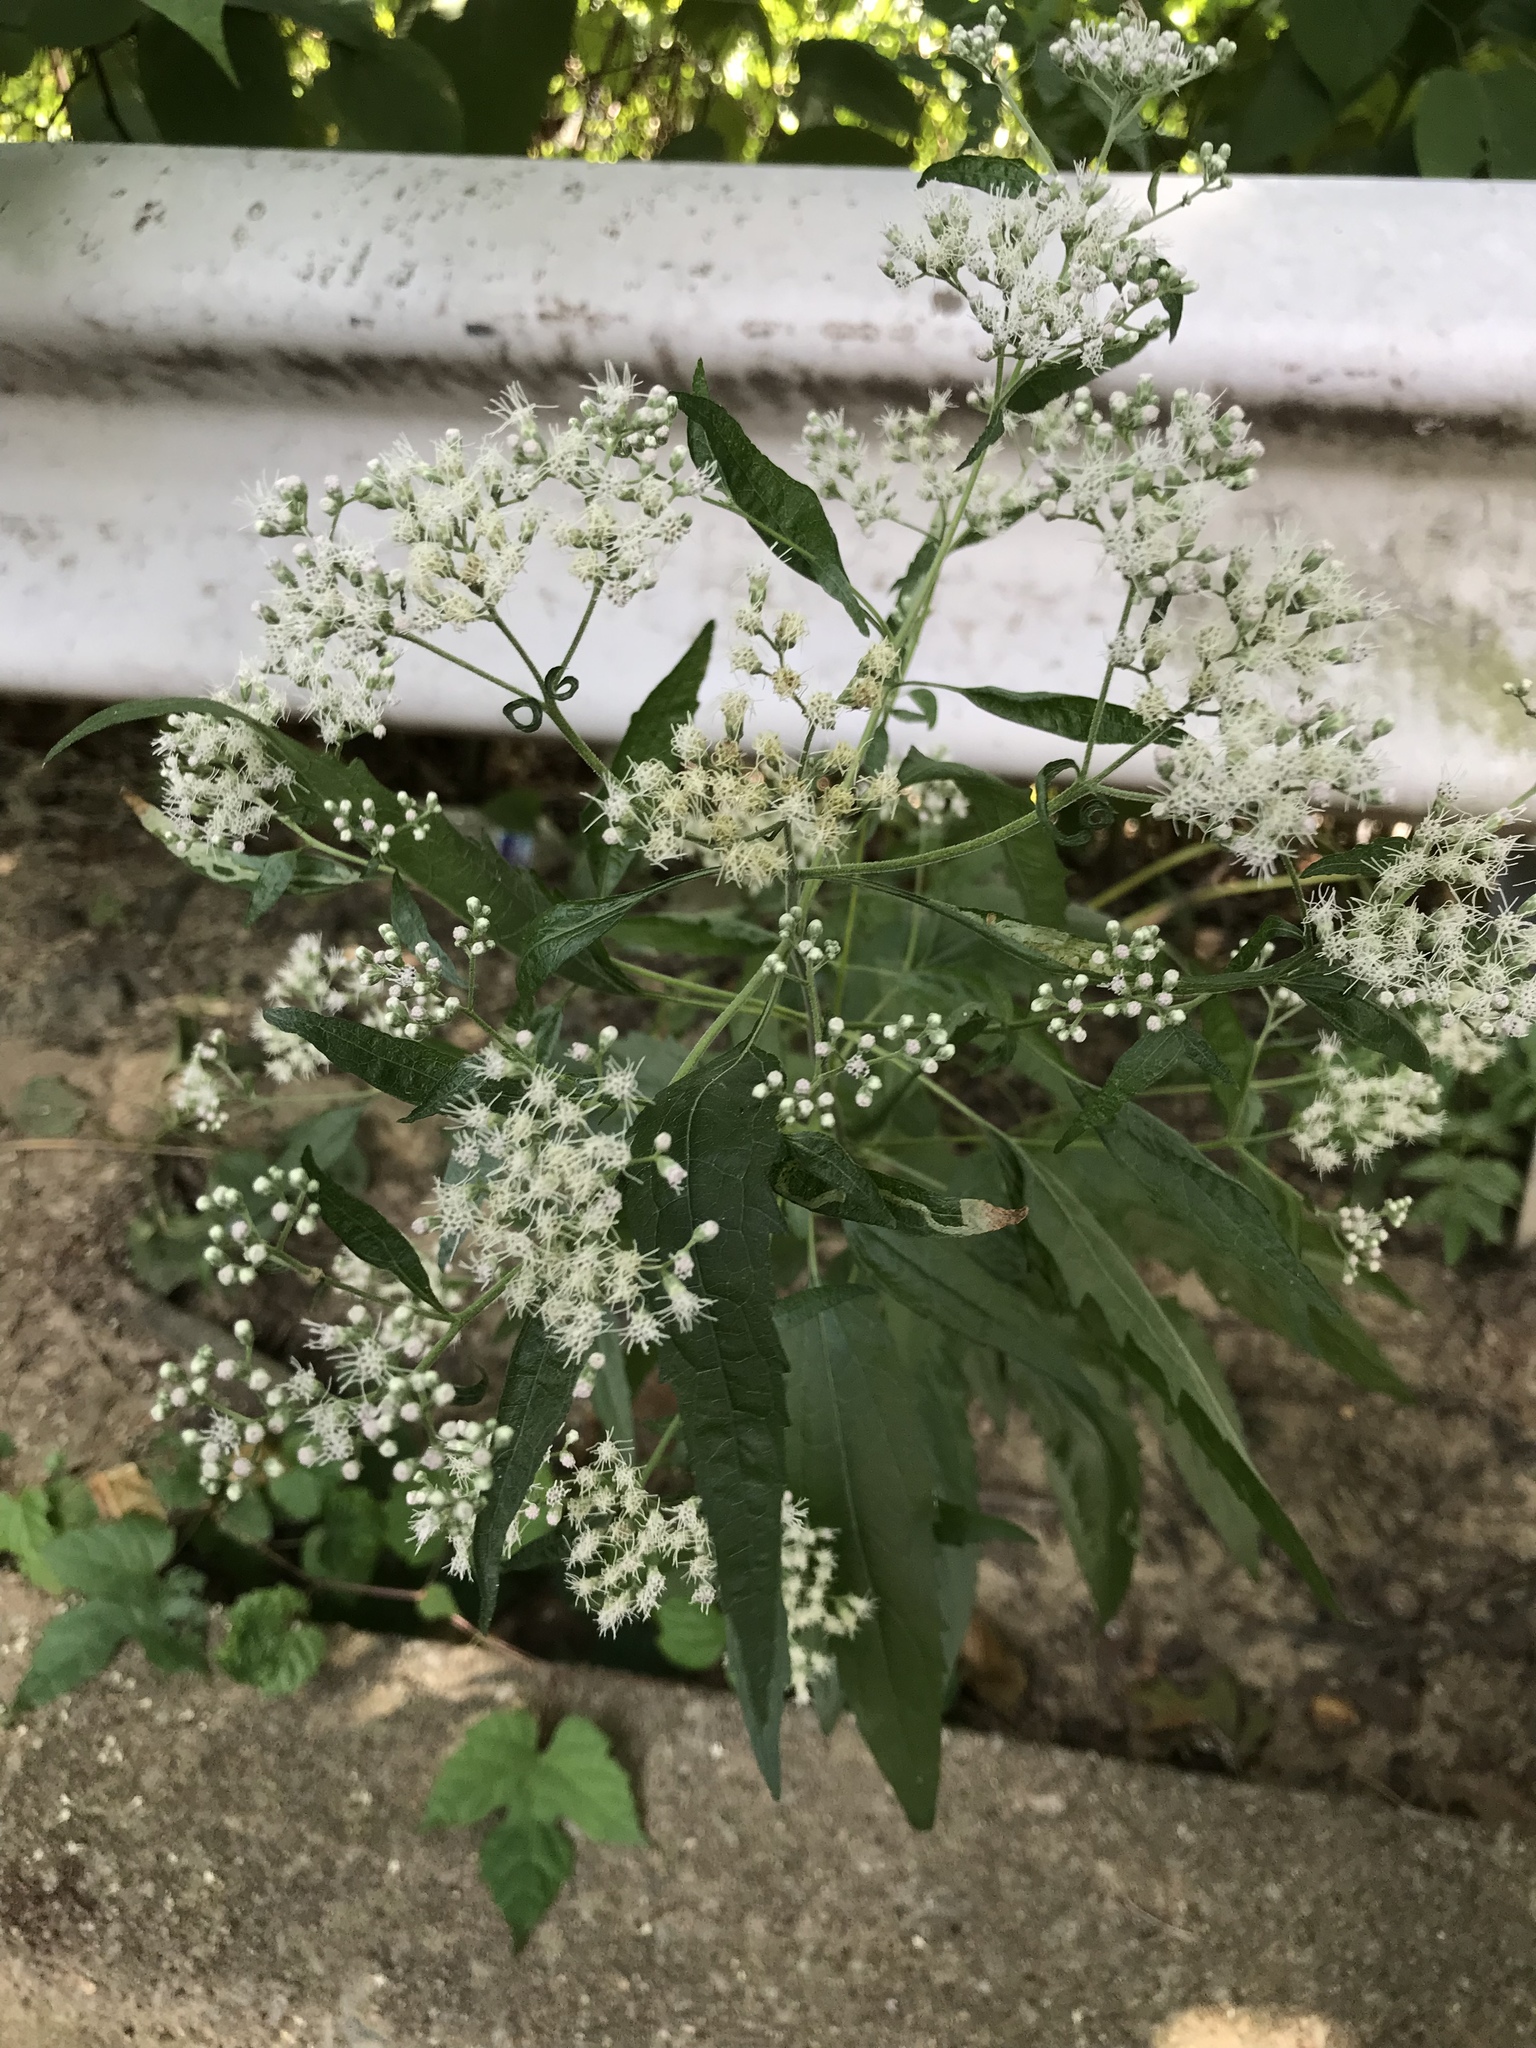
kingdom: Plantae
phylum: Tracheophyta
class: Magnoliopsida
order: Asterales
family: Asteraceae
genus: Eupatorium
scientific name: Eupatorium serotinum
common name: Late boneset
